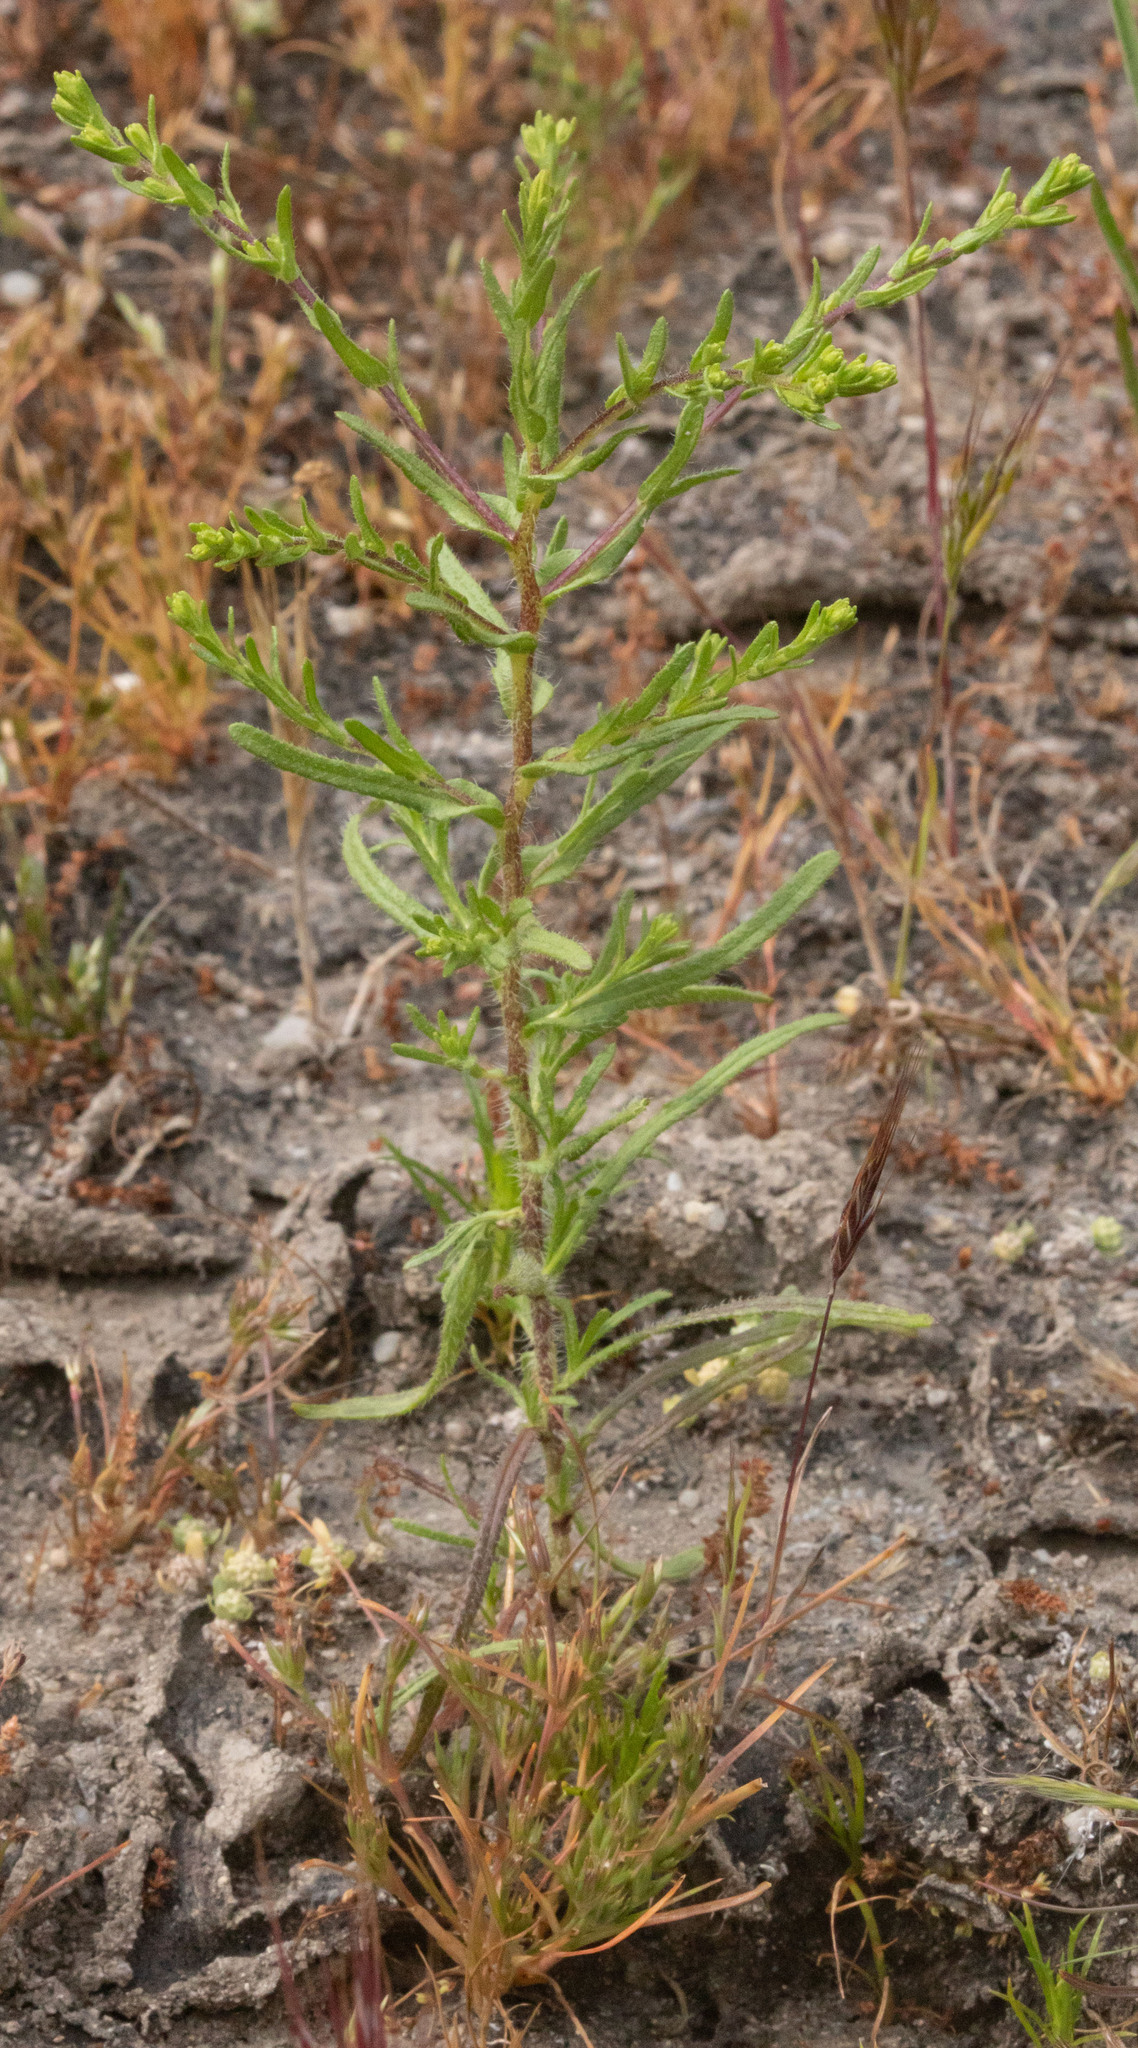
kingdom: Plantae
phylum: Tracheophyta
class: Magnoliopsida
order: Asterales
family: Asteraceae
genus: Deinandra
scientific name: Deinandra lobbii
